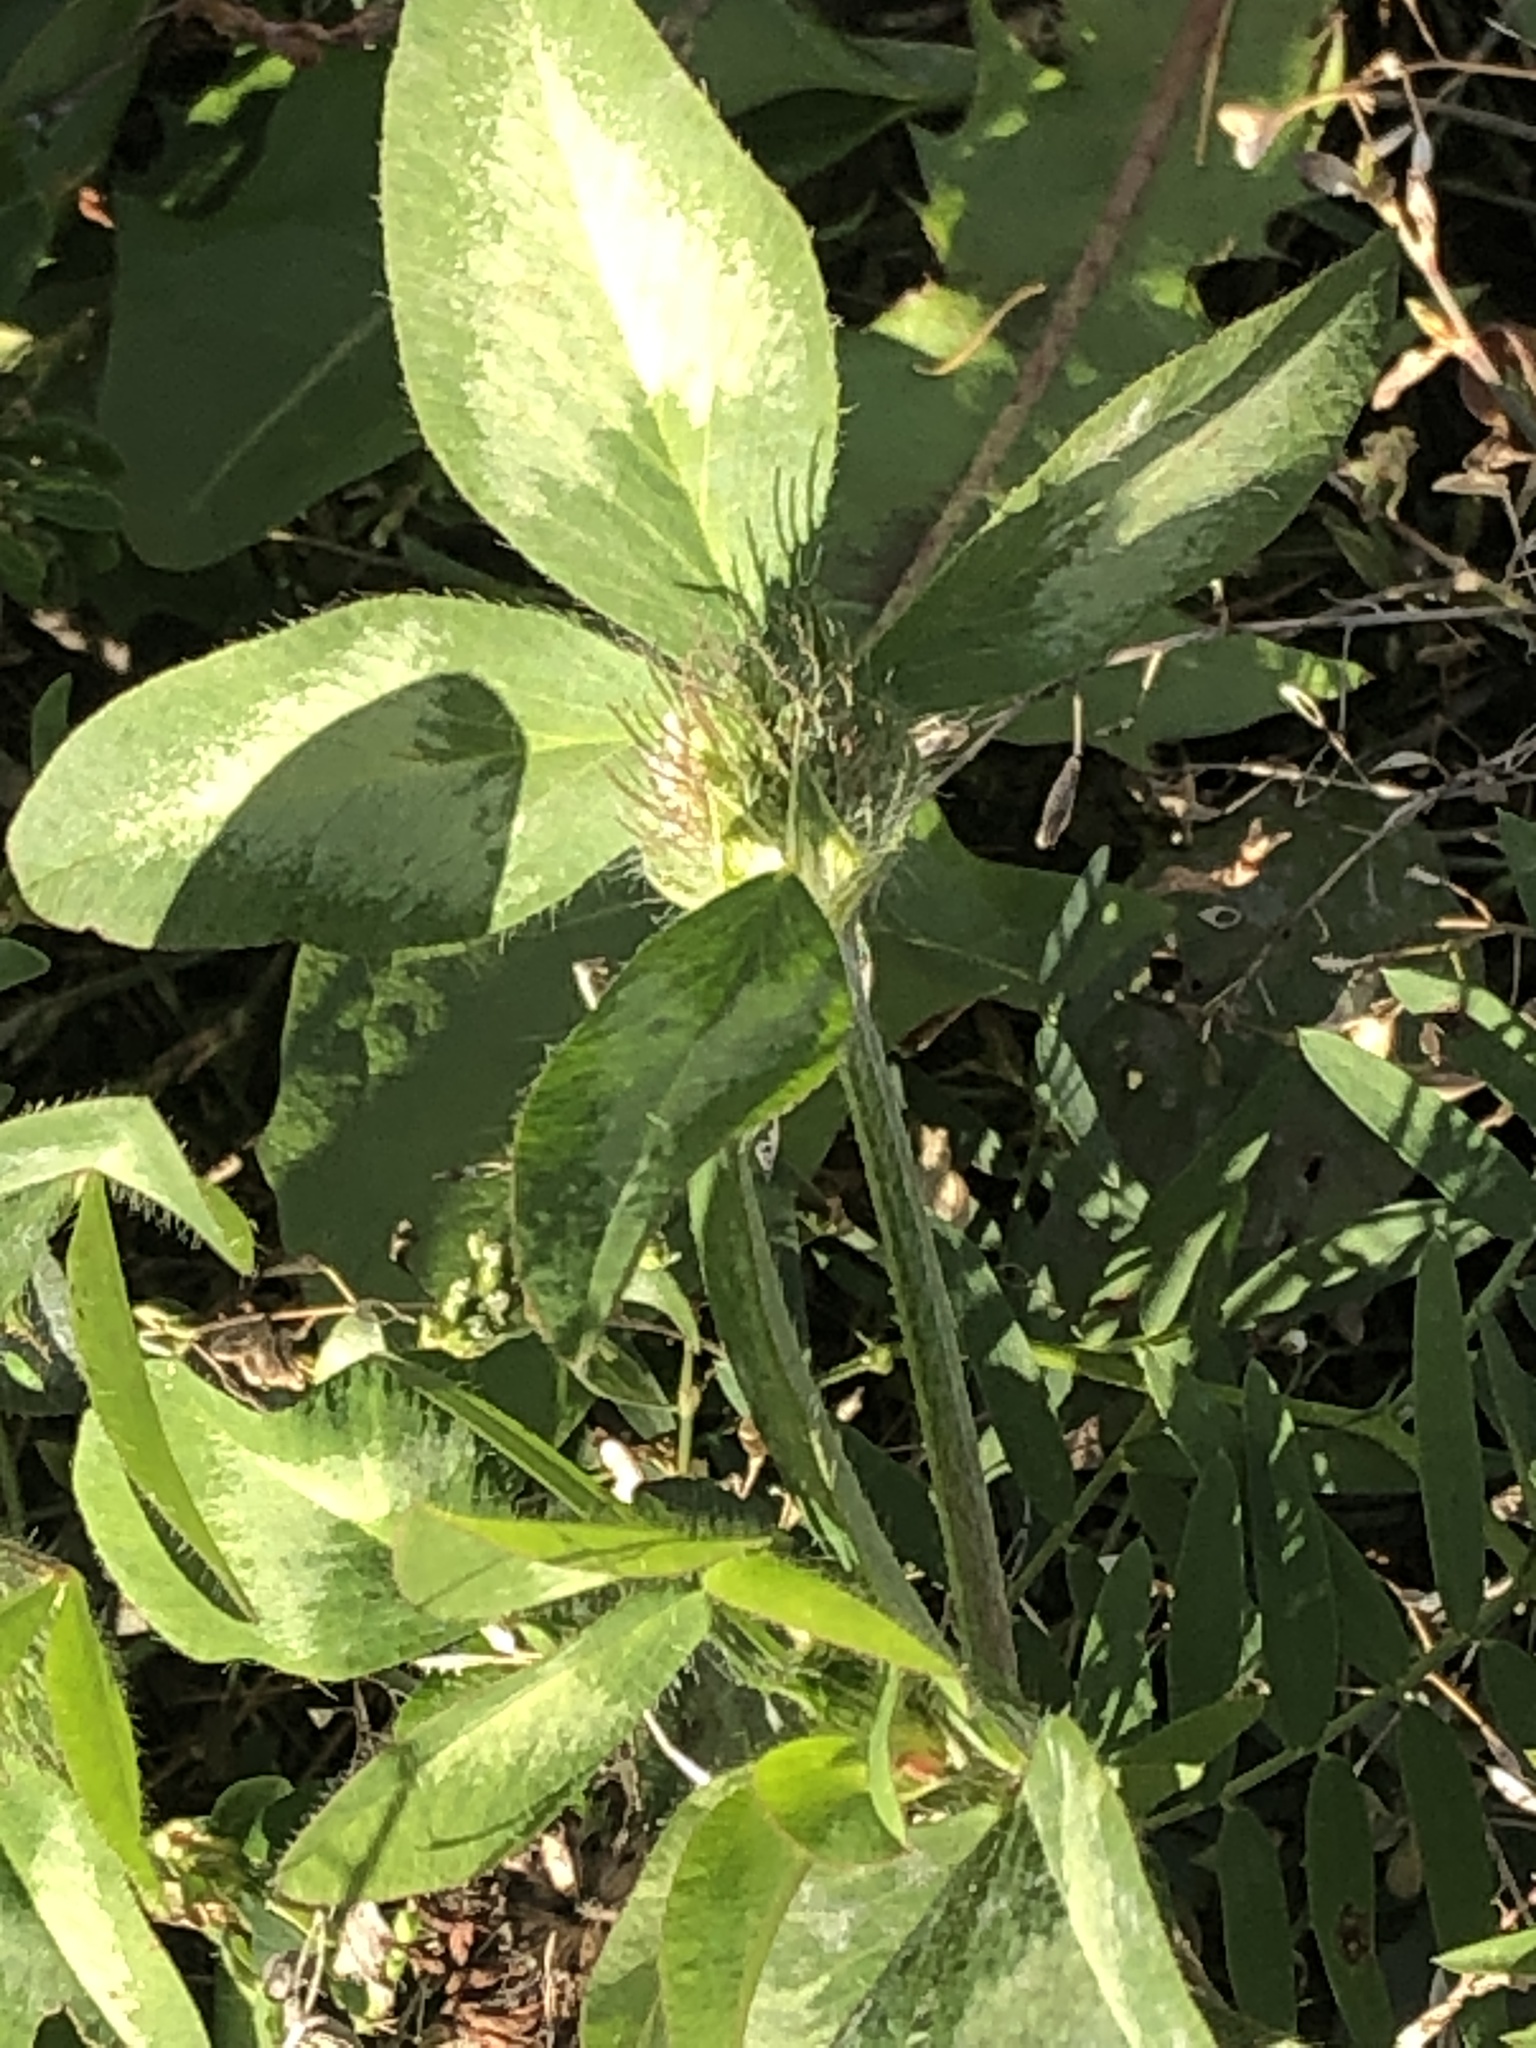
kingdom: Plantae
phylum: Tracheophyta
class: Magnoliopsida
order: Fabales
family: Fabaceae
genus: Trifolium
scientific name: Trifolium pratense
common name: Red clover
